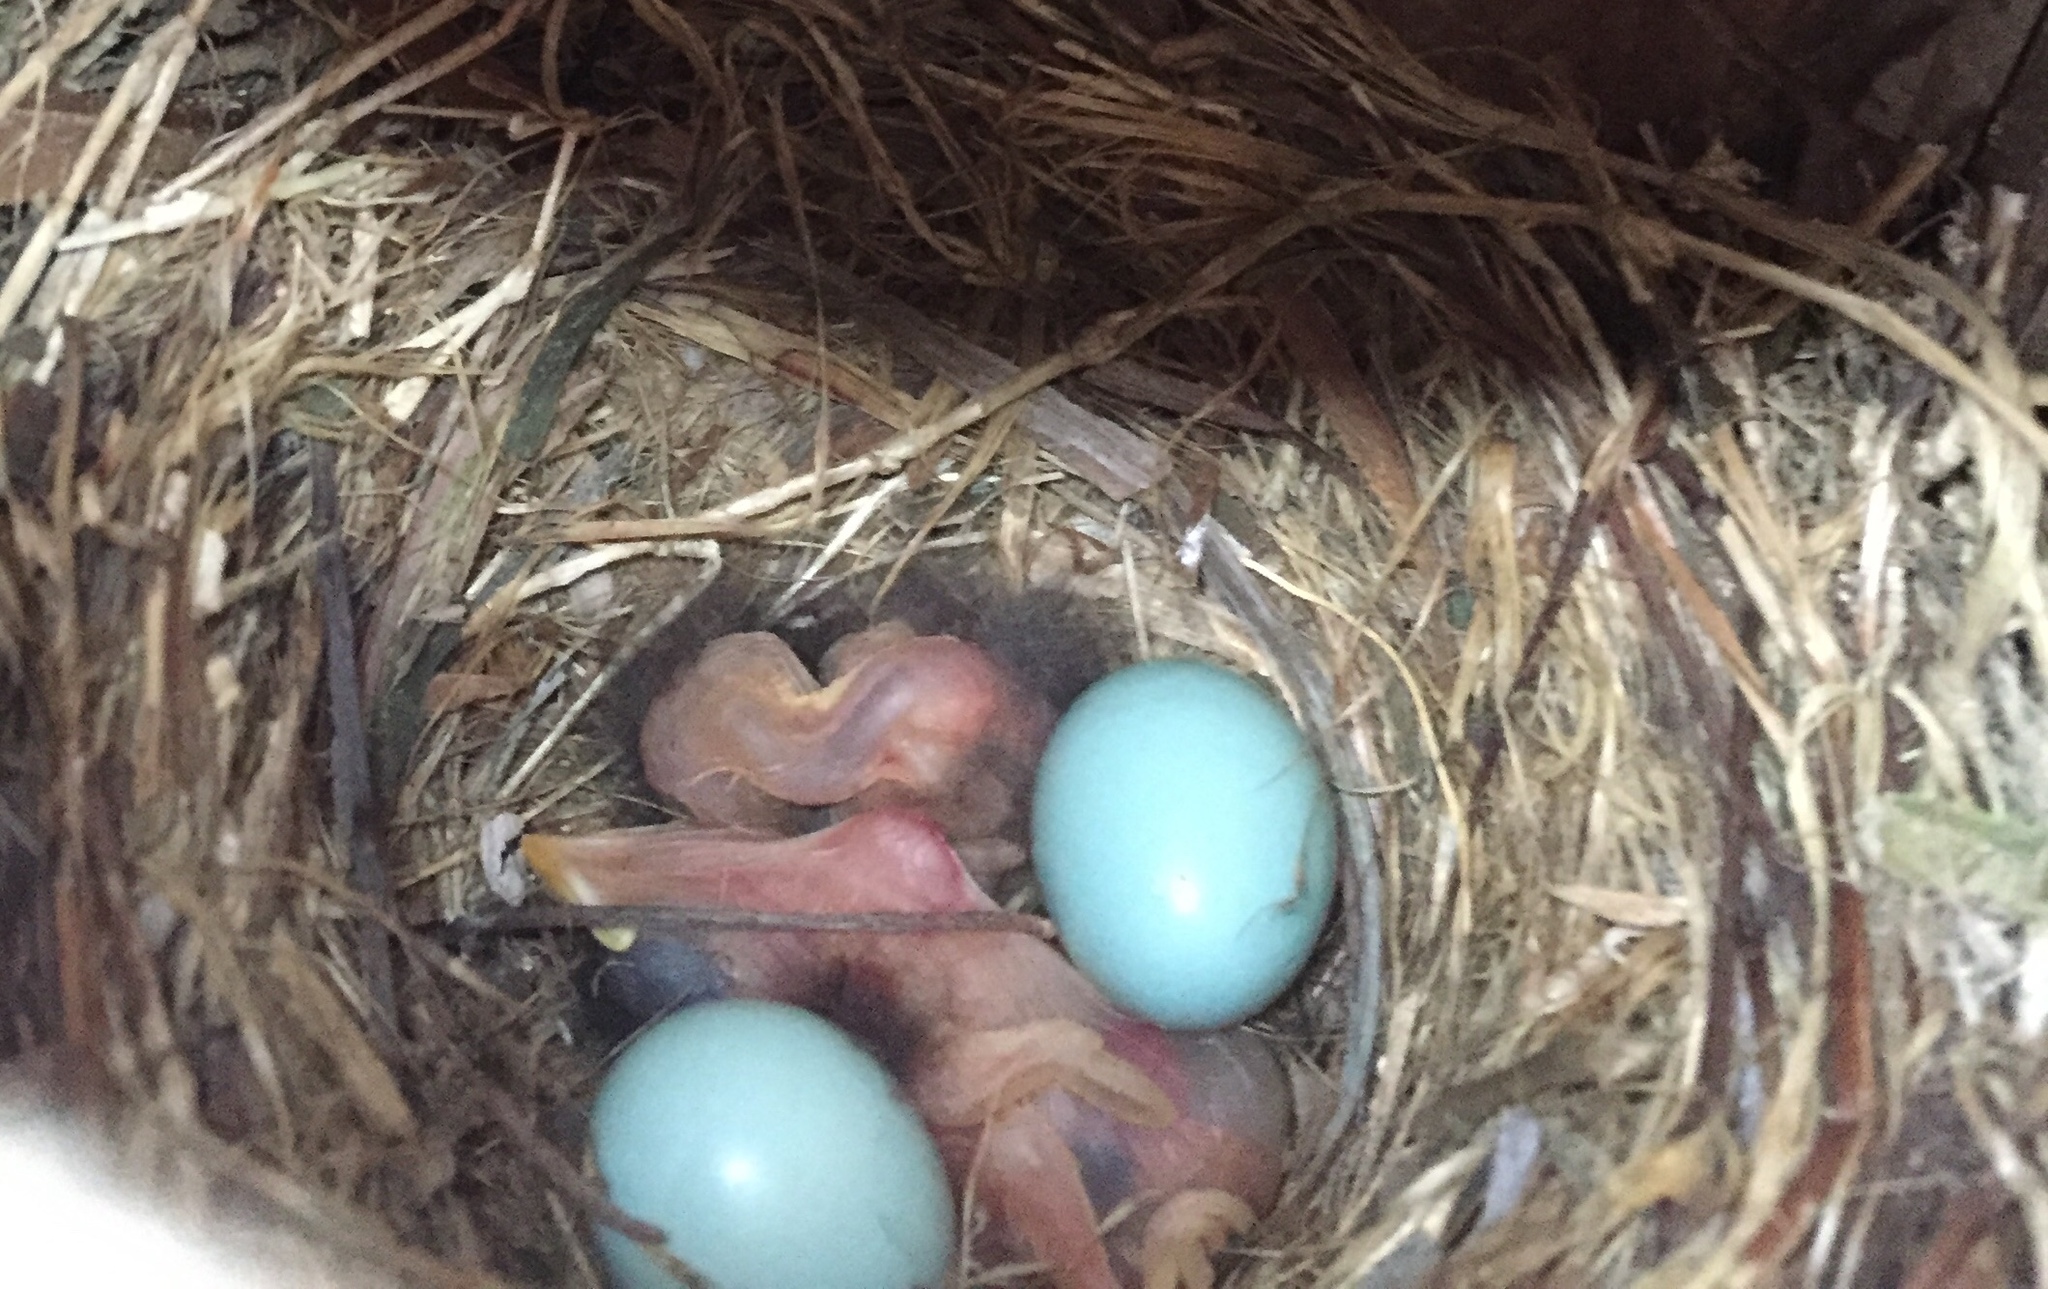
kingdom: Animalia
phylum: Chordata
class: Aves
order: Passeriformes
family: Turdidae
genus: Sialia
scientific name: Sialia sialis
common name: Eastern bluebird
